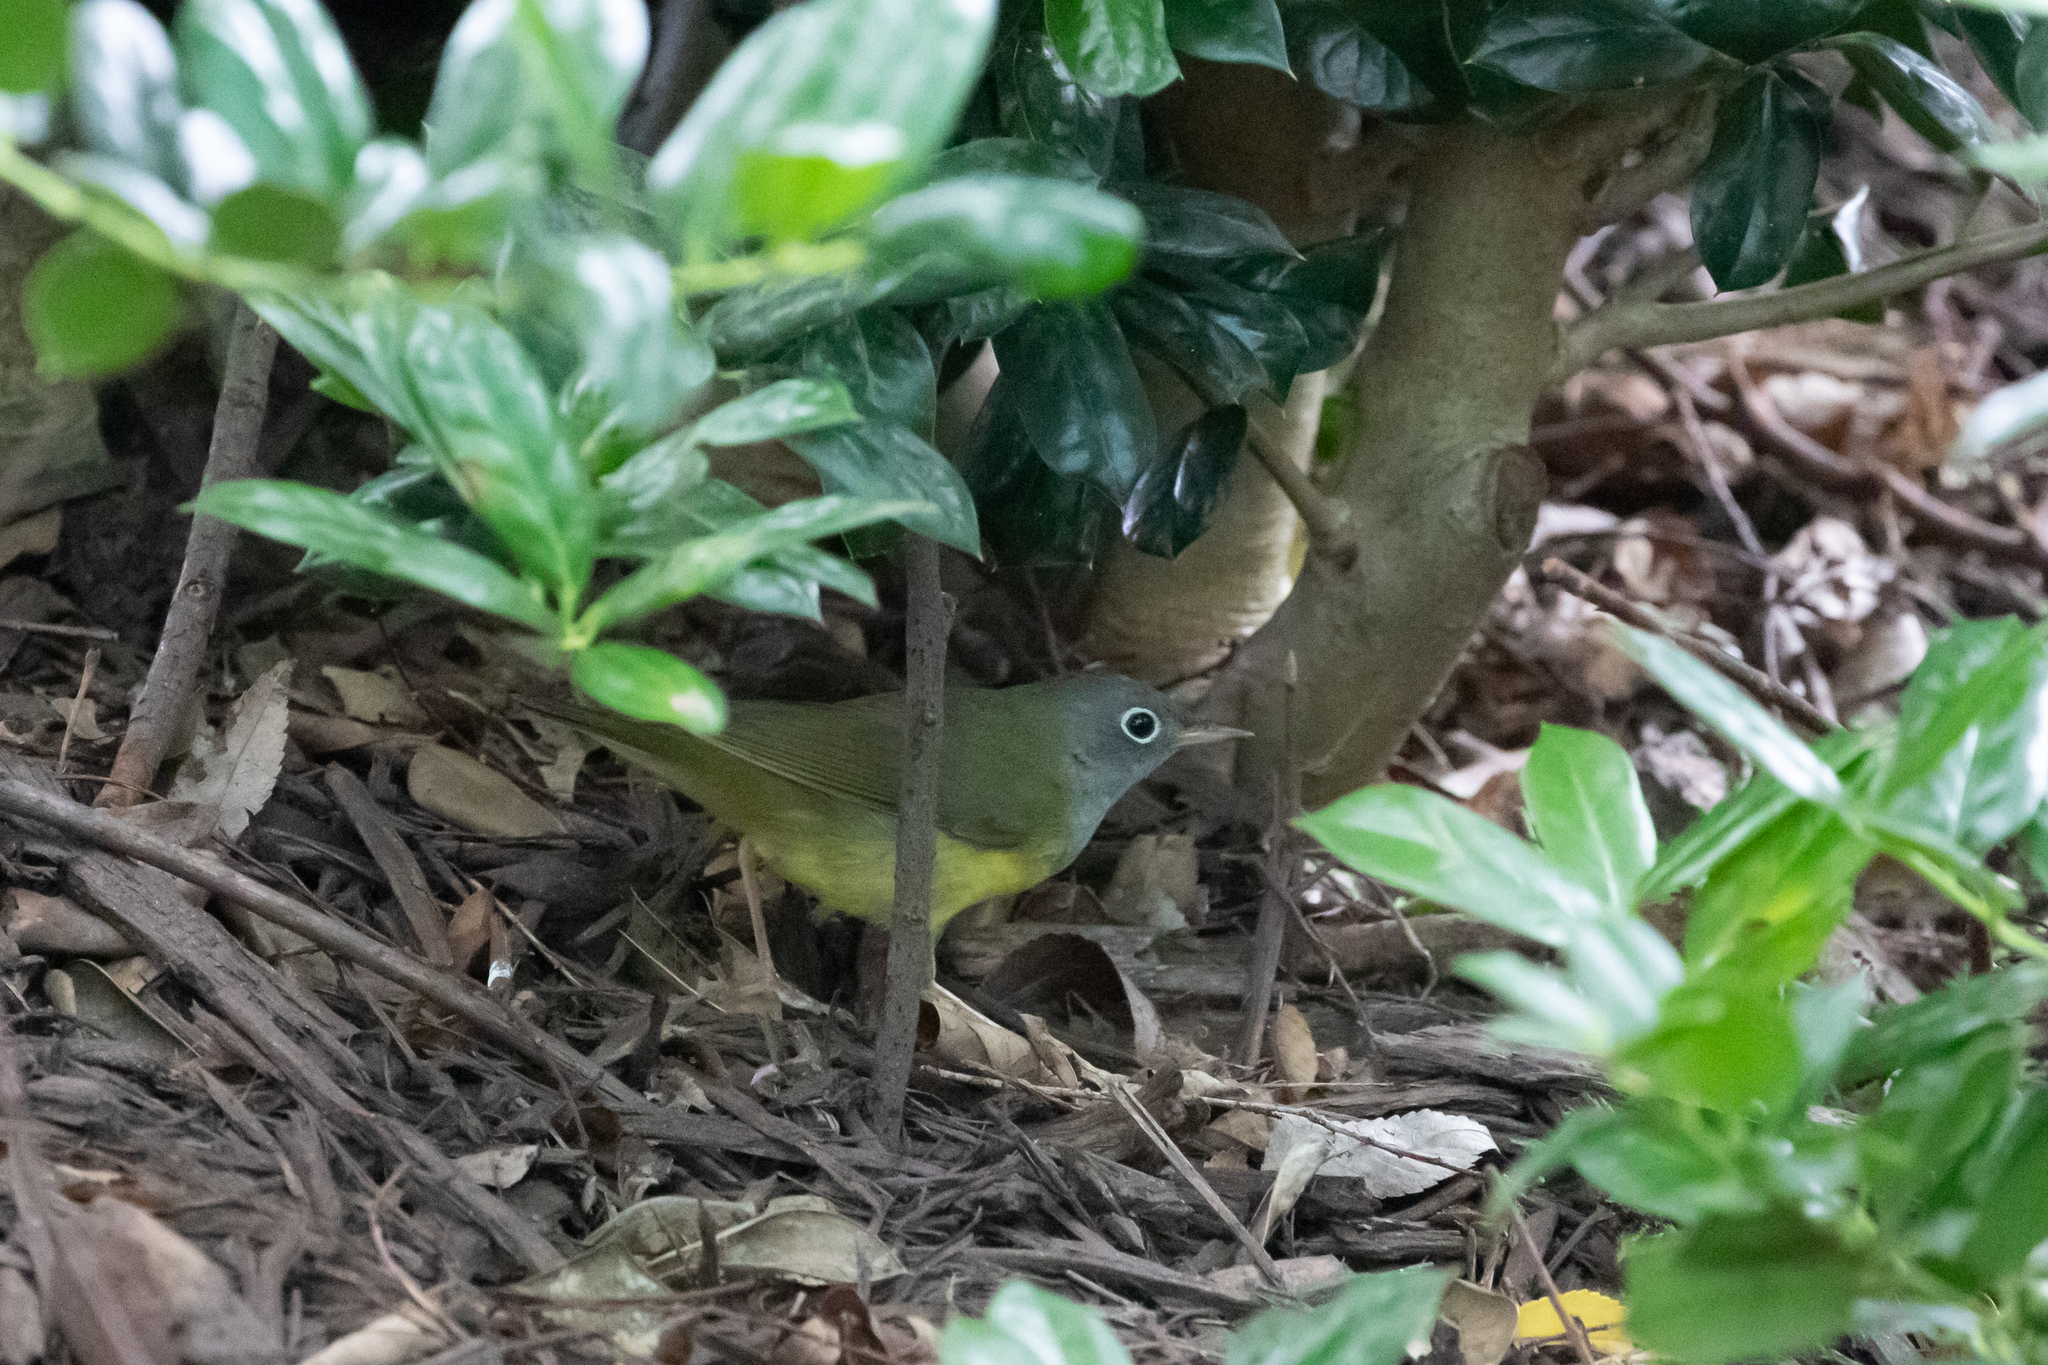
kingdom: Animalia
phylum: Chordata
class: Aves
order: Passeriformes
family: Parulidae
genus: Oporornis
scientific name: Oporornis agilis
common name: Connecticut warbler
